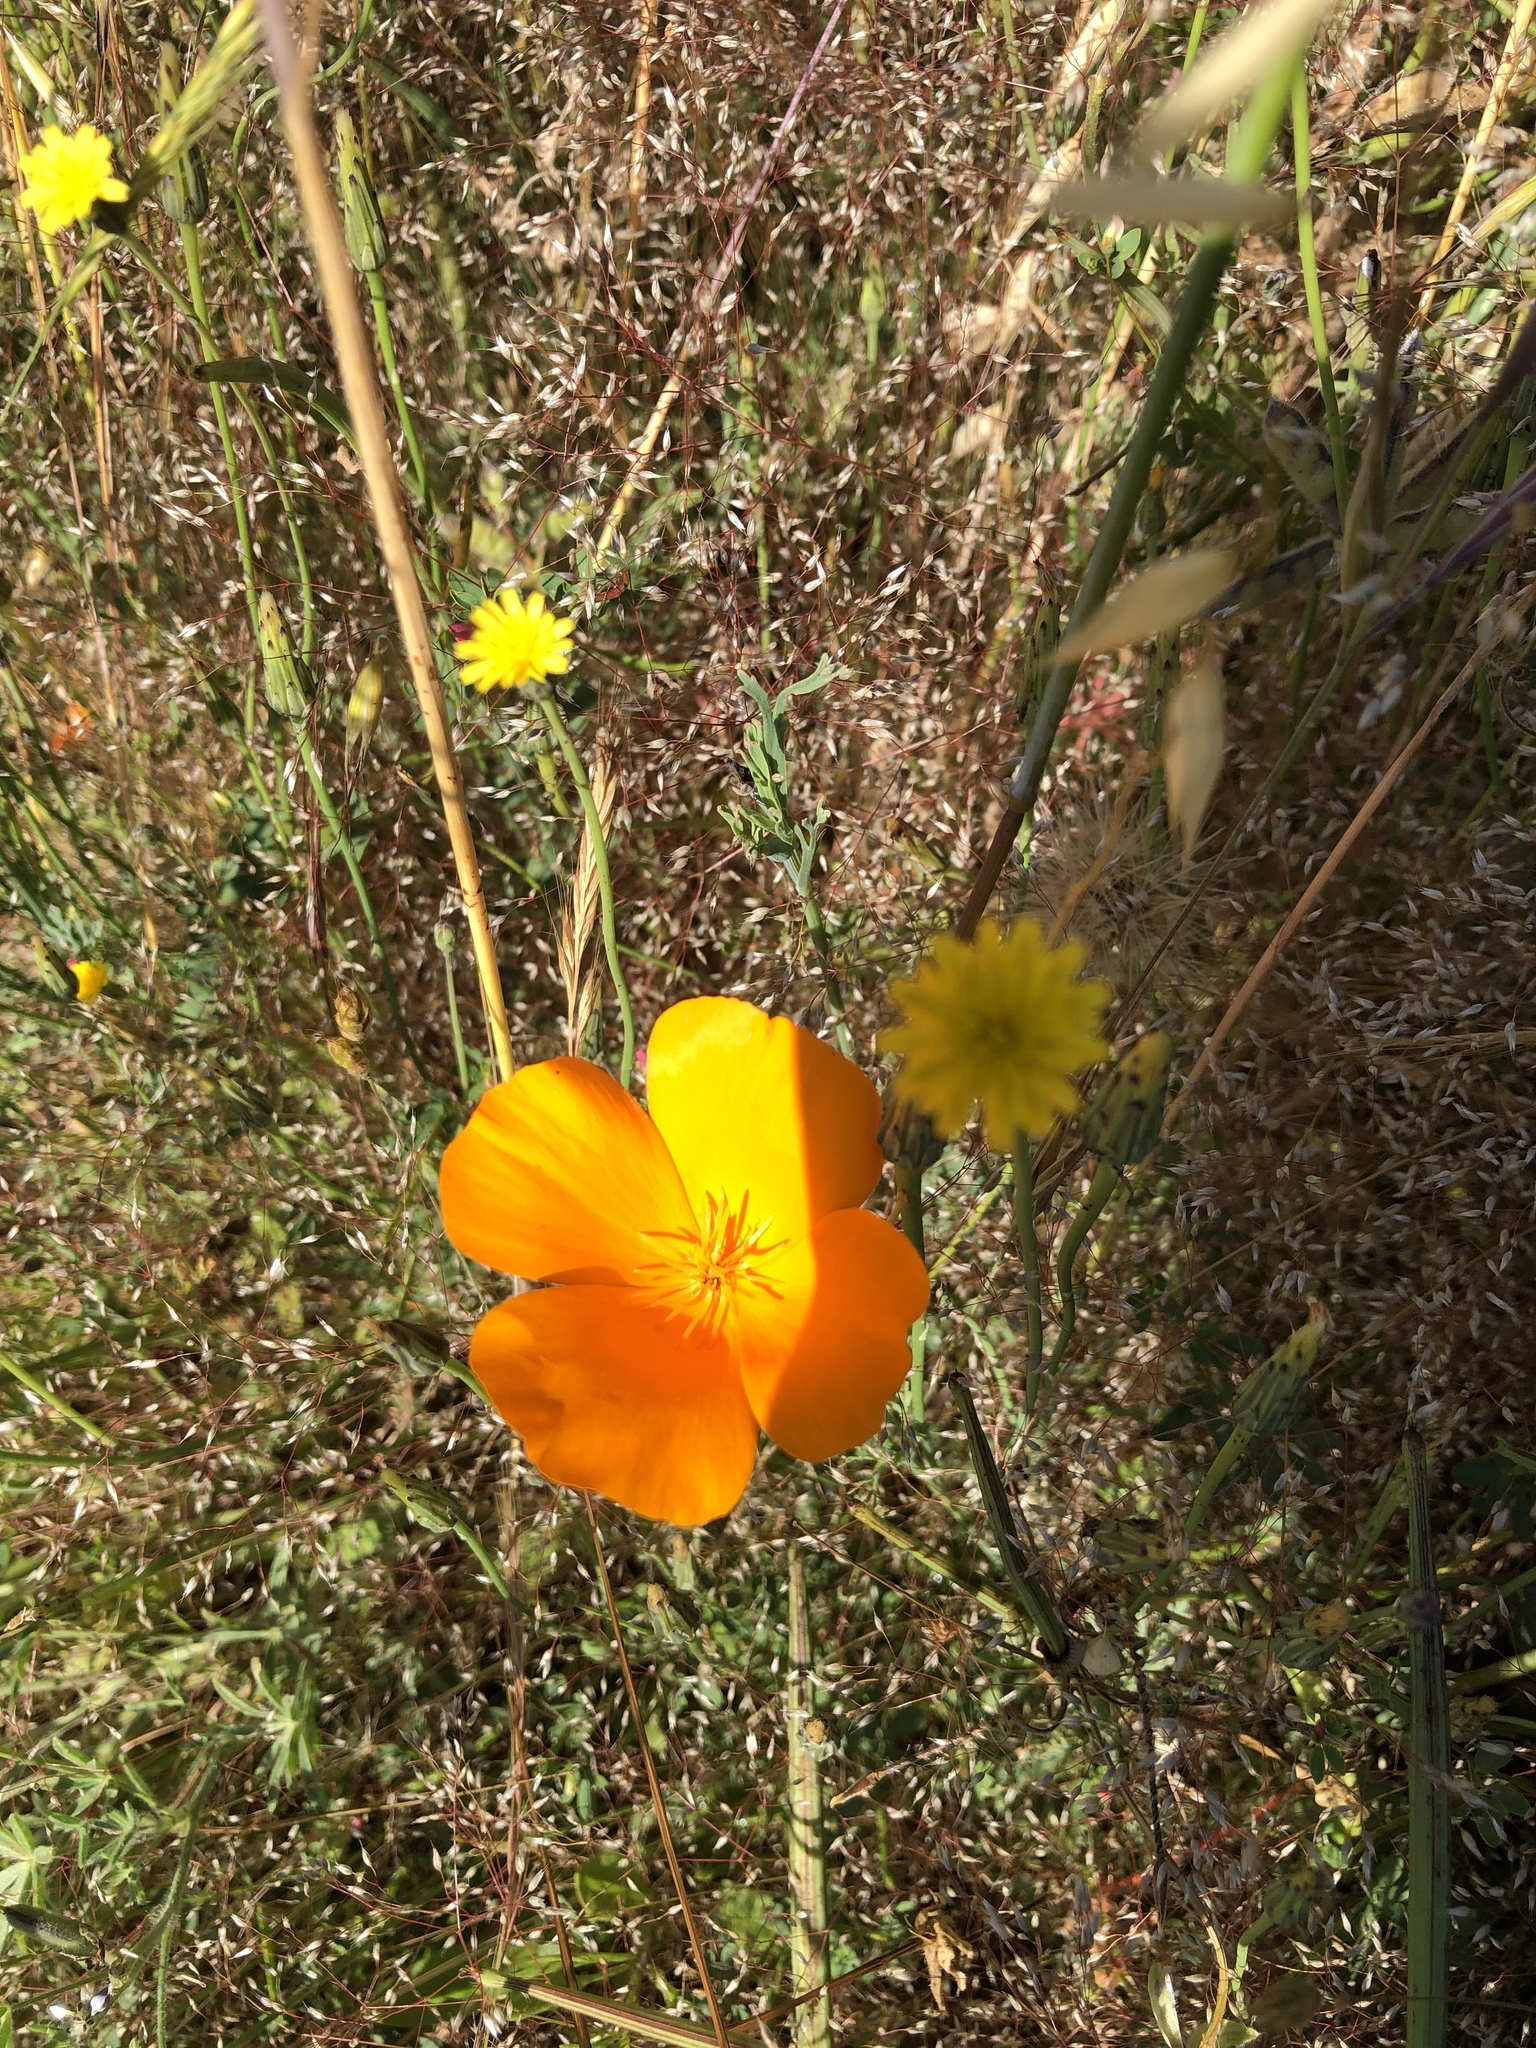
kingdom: Plantae
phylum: Tracheophyta
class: Magnoliopsida
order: Ranunculales
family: Papaveraceae
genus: Eschscholzia
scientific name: Eschscholzia californica
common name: California poppy
